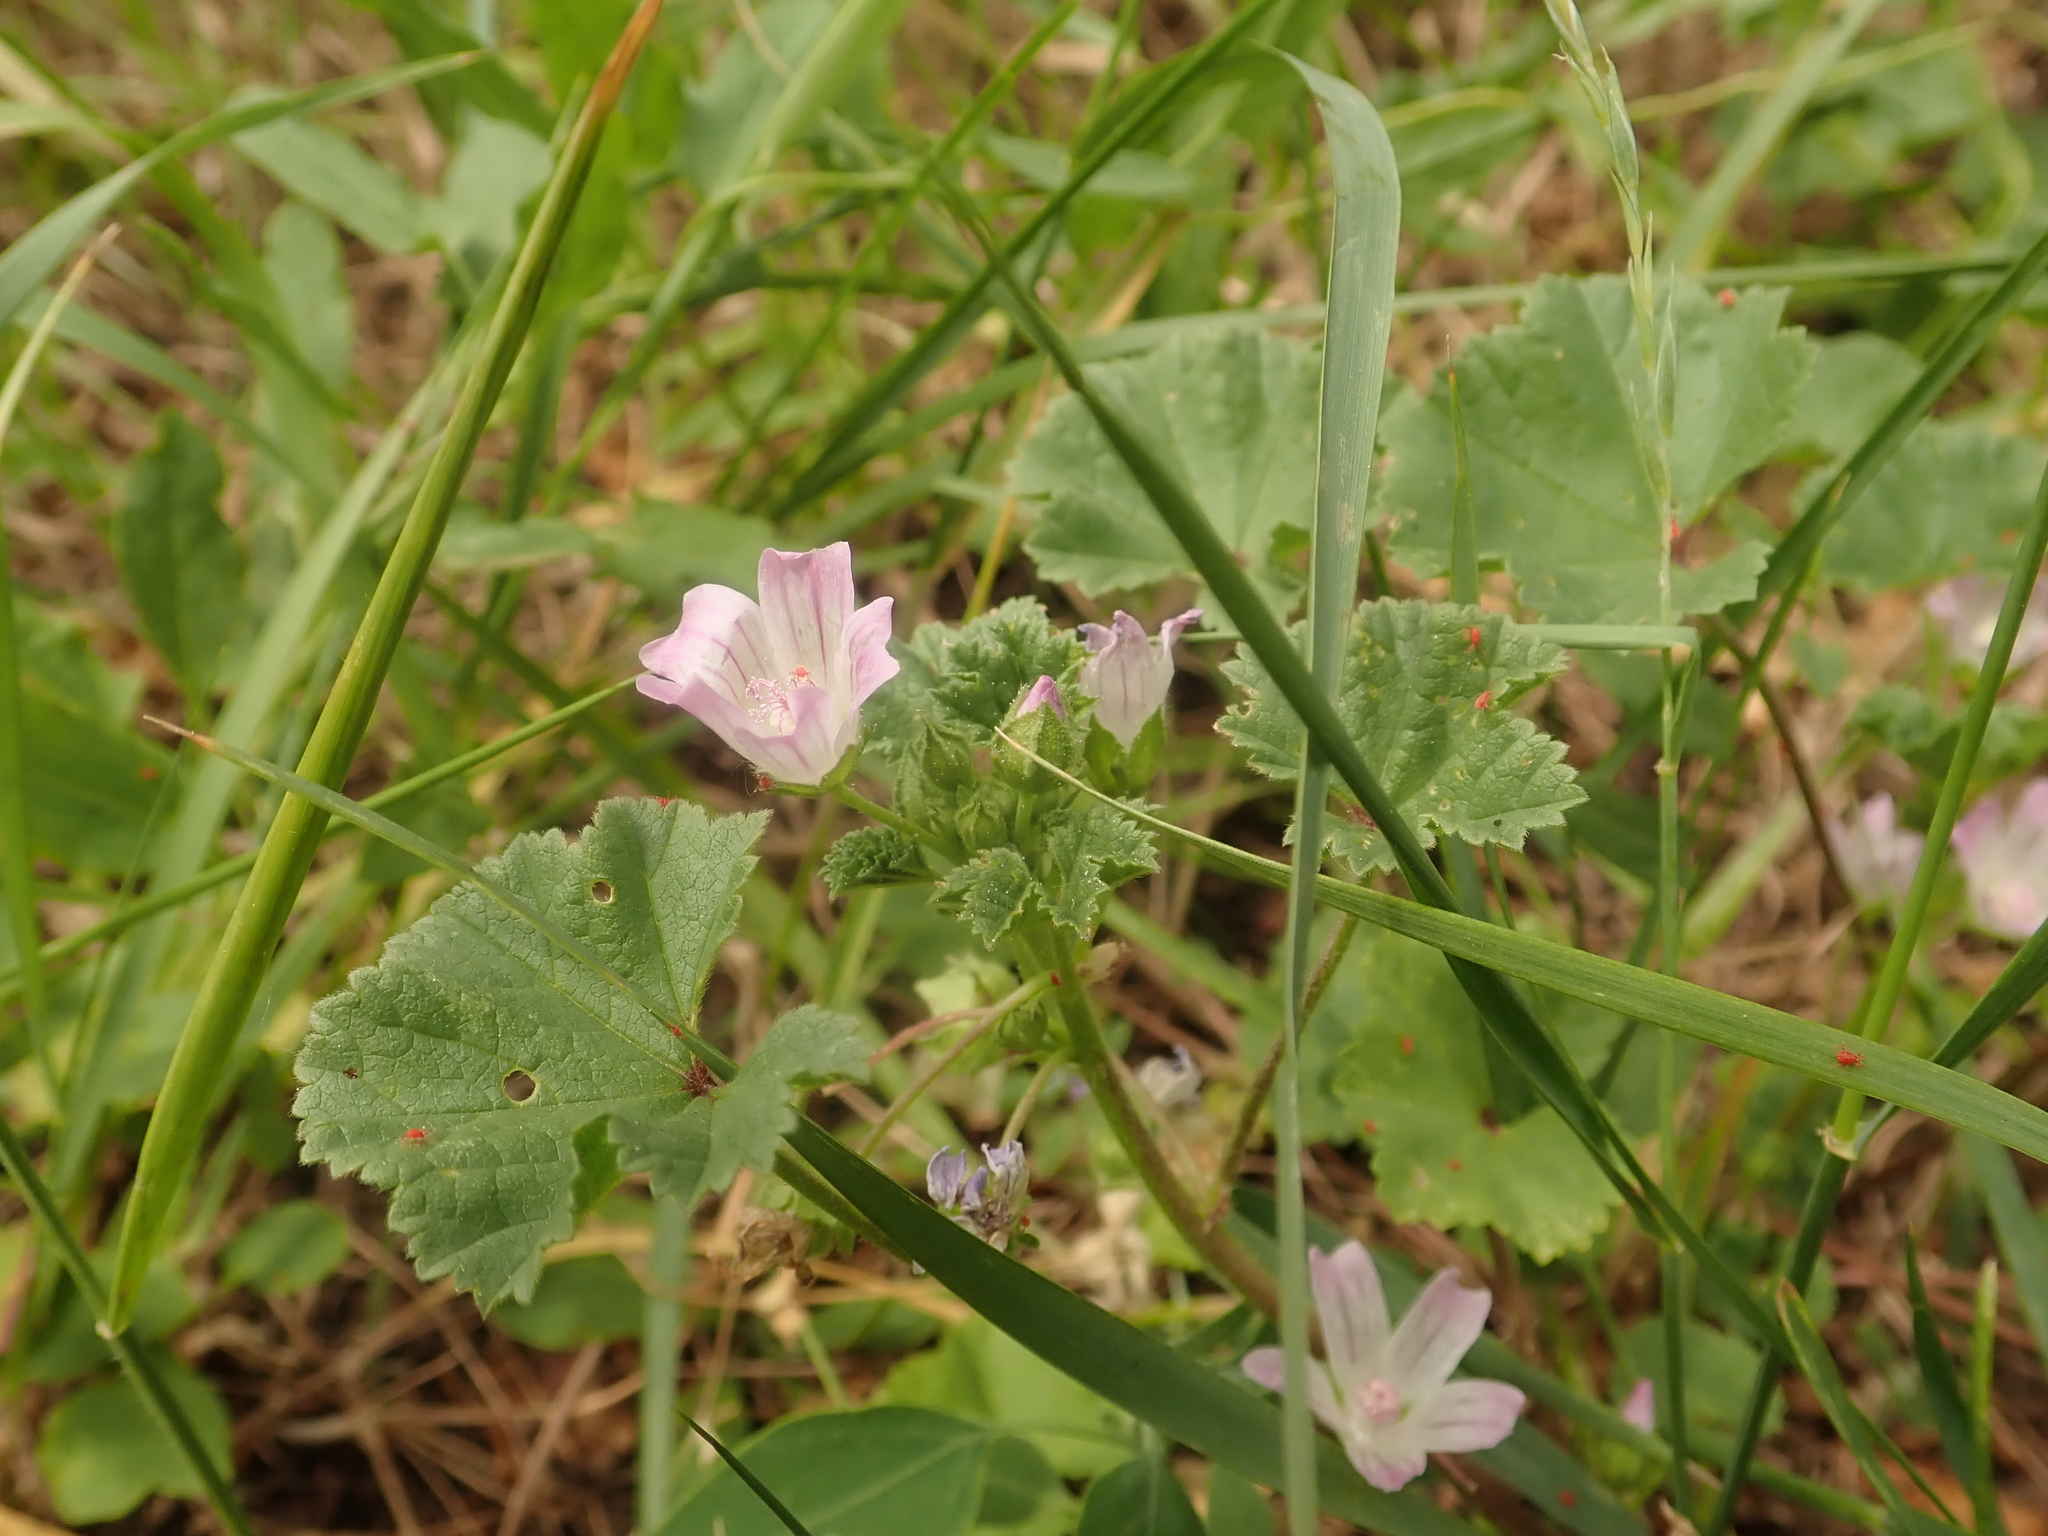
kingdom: Plantae
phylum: Tracheophyta
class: Magnoliopsida
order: Malvales
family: Malvaceae
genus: Malva
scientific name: Malva neglecta
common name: Common mallow
